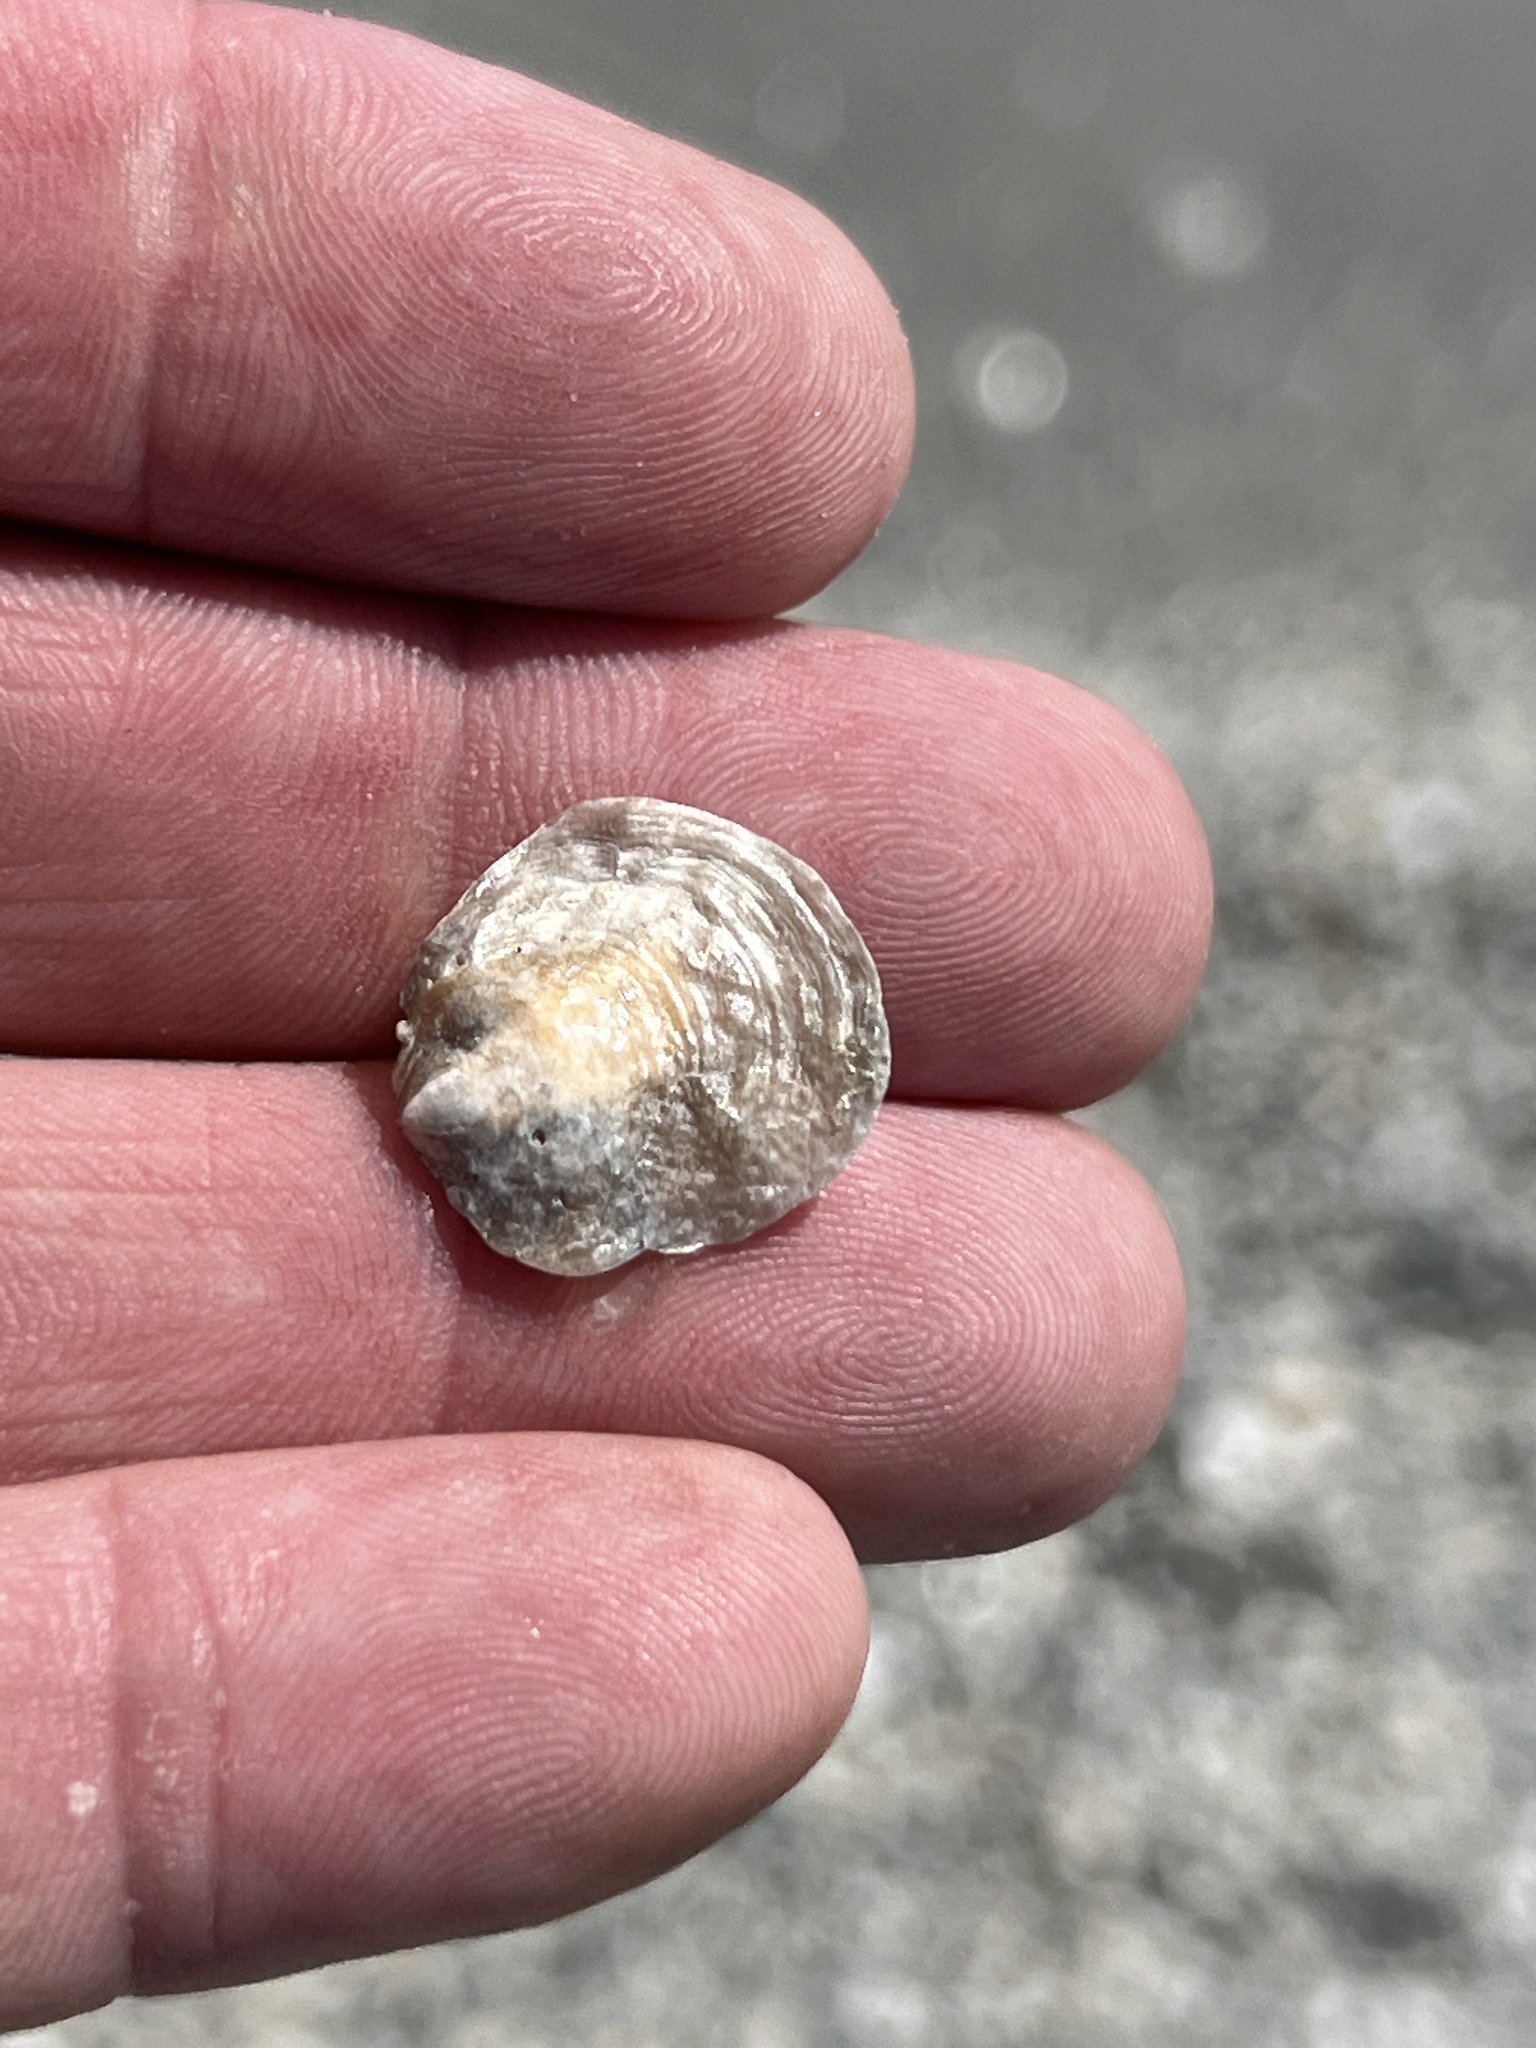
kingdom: Animalia
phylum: Mollusca
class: Bivalvia
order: Pectinida
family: Anomiidae
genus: Anomia
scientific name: Anomia simplex
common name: Common jingle shell
